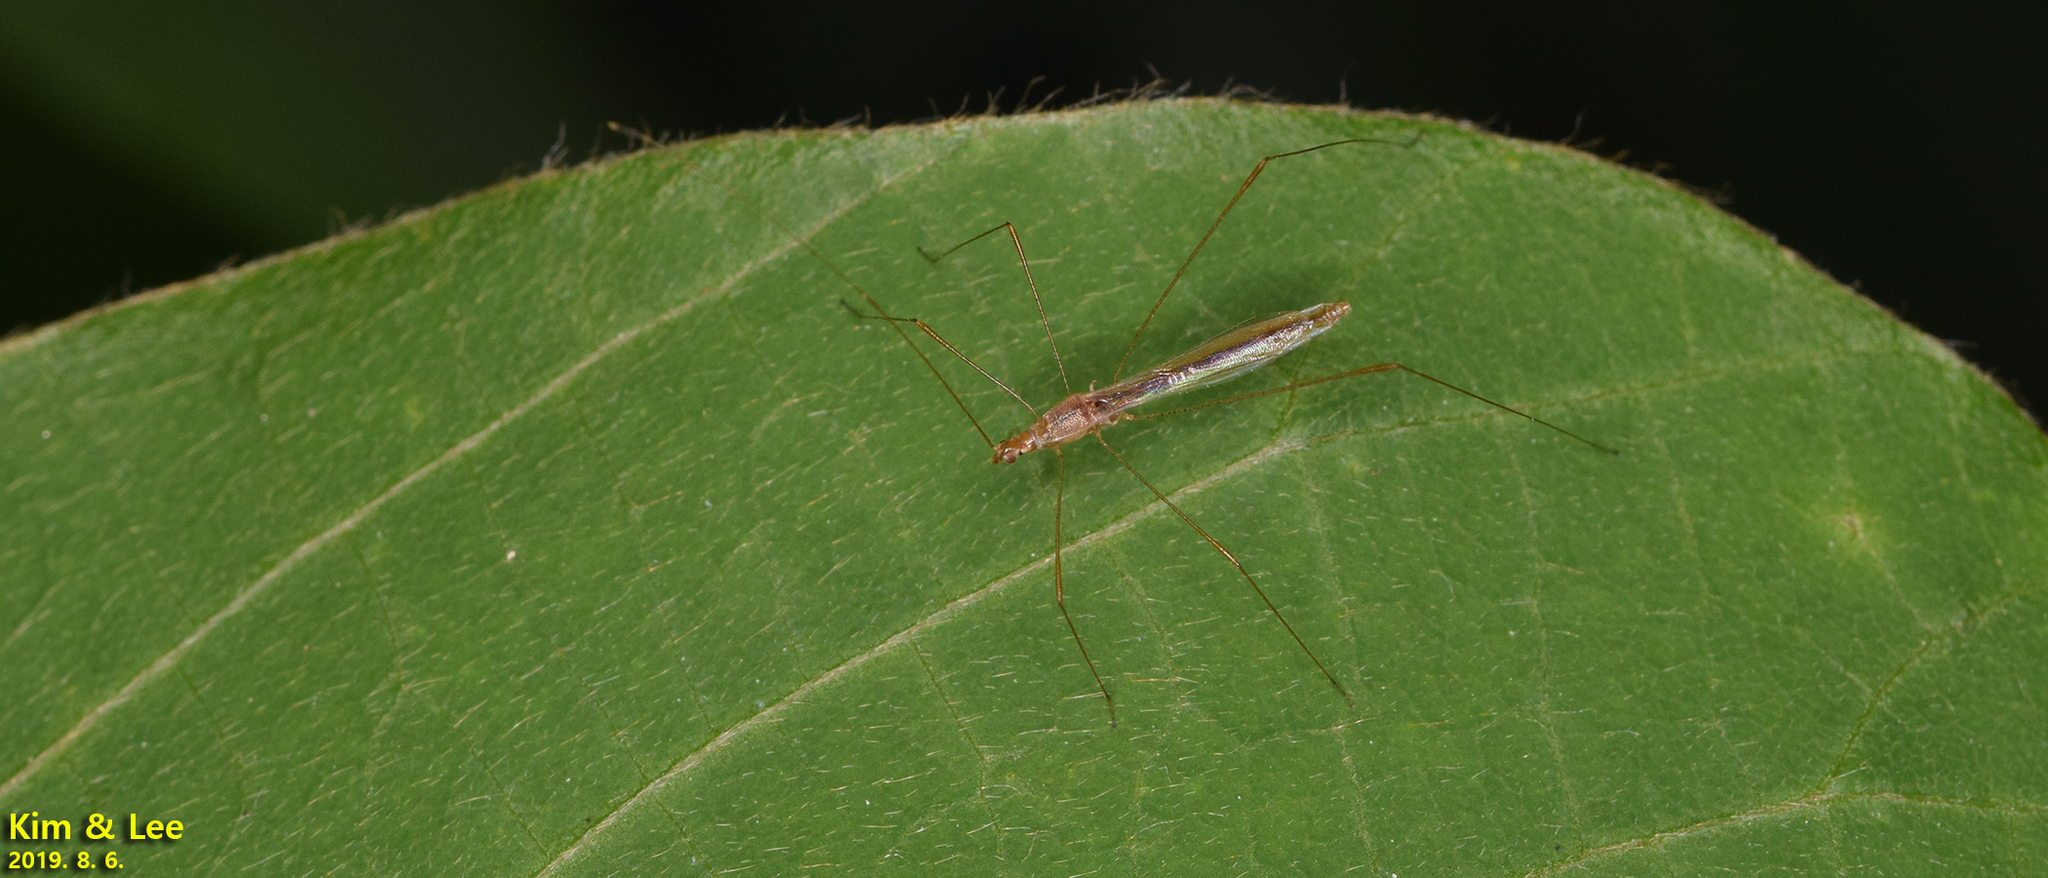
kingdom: Animalia
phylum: Arthropoda
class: Insecta
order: Hemiptera
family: Berytidae
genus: Yemma
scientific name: Yemma exilis
